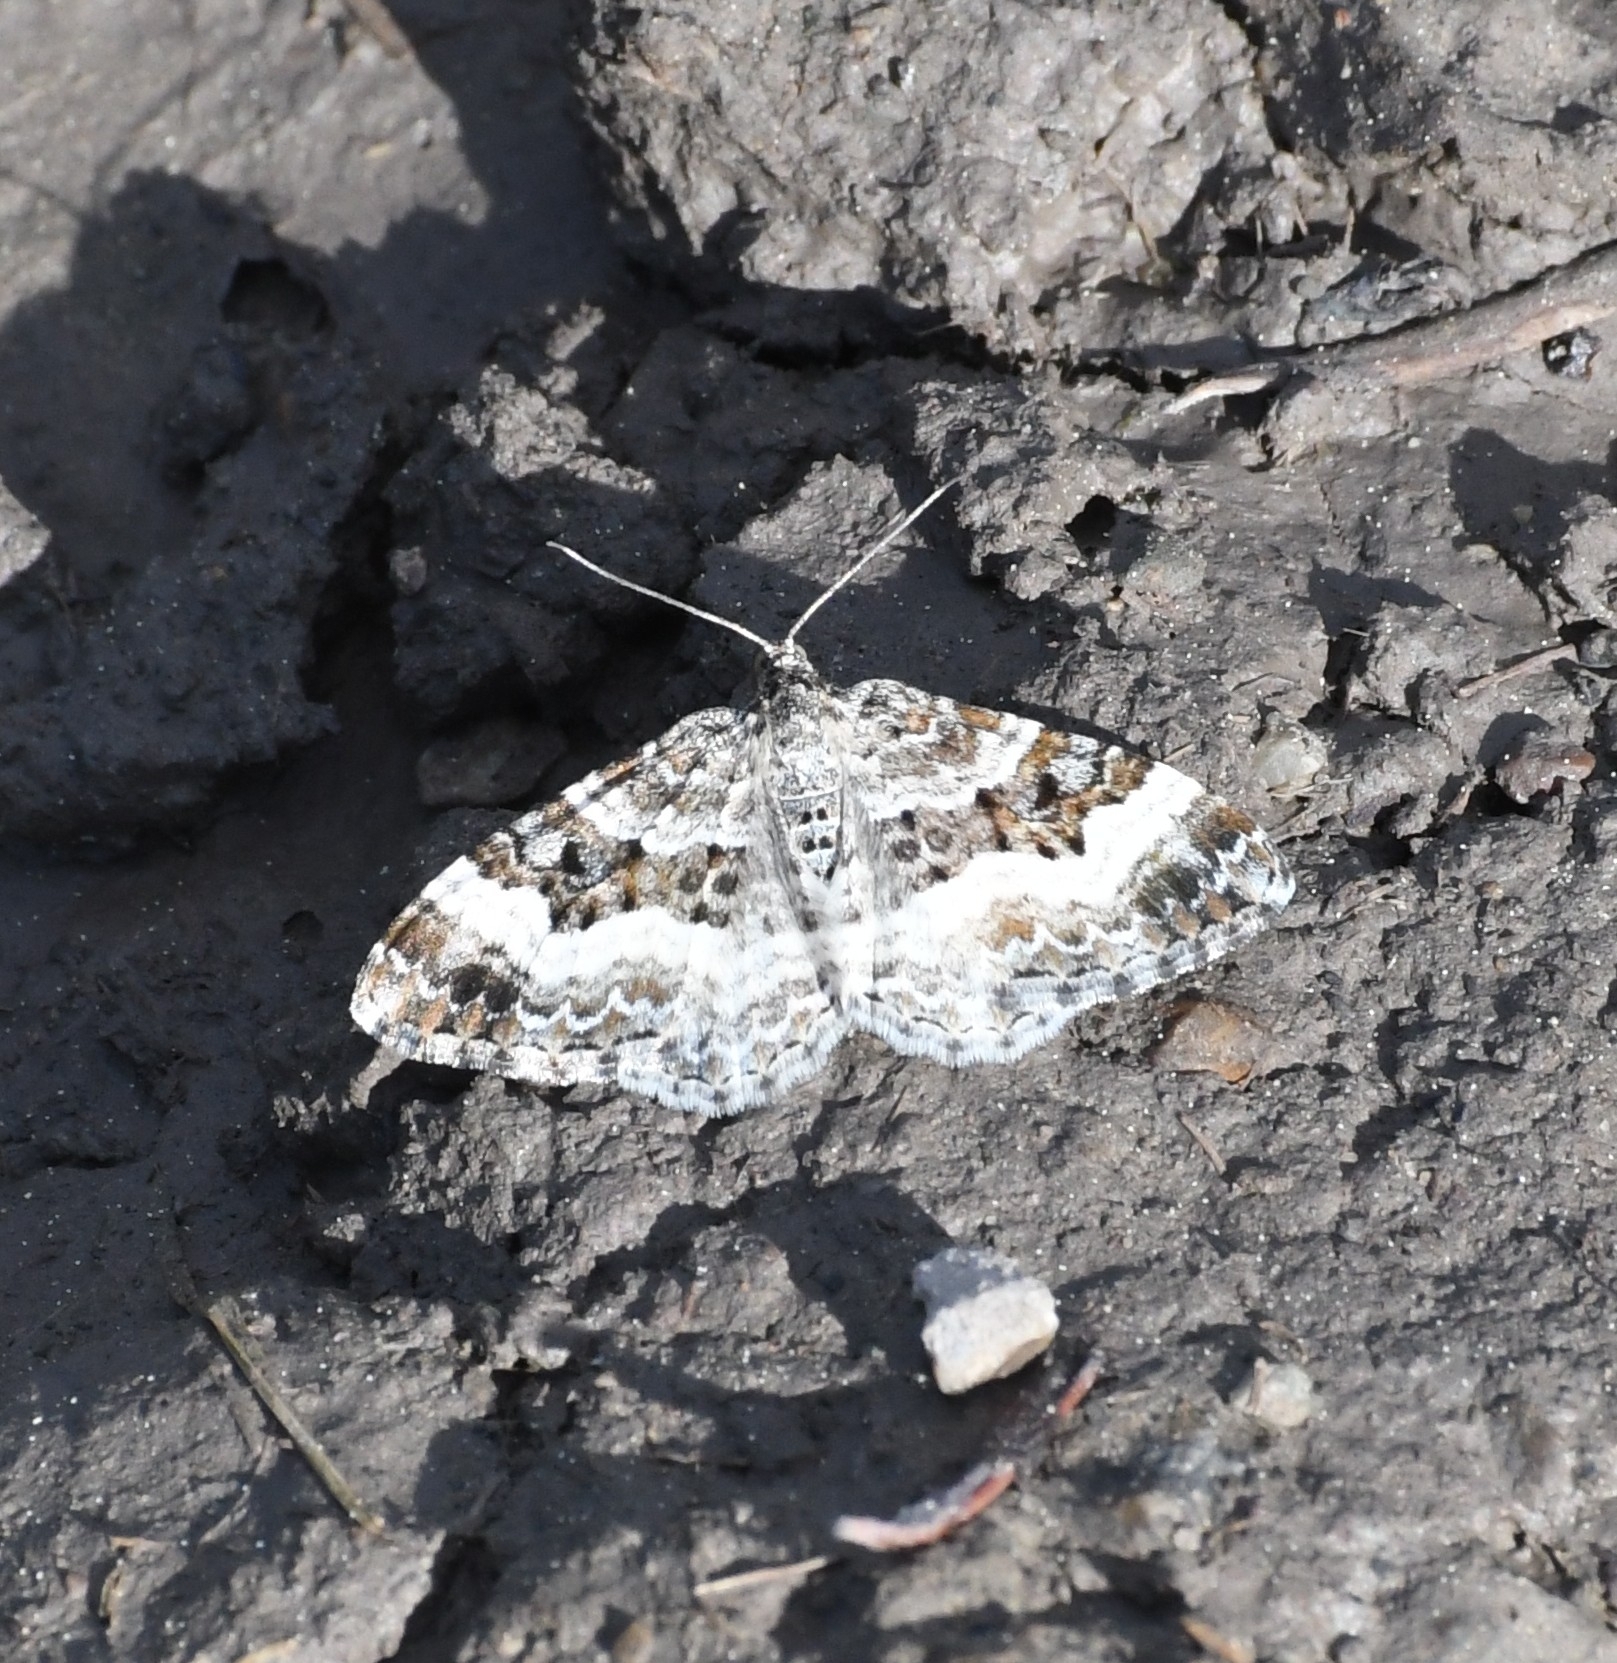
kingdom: Animalia
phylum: Arthropoda
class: Insecta
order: Lepidoptera
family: Geometridae
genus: Epirrhoe
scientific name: Epirrhoe alternata
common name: Common carpet
